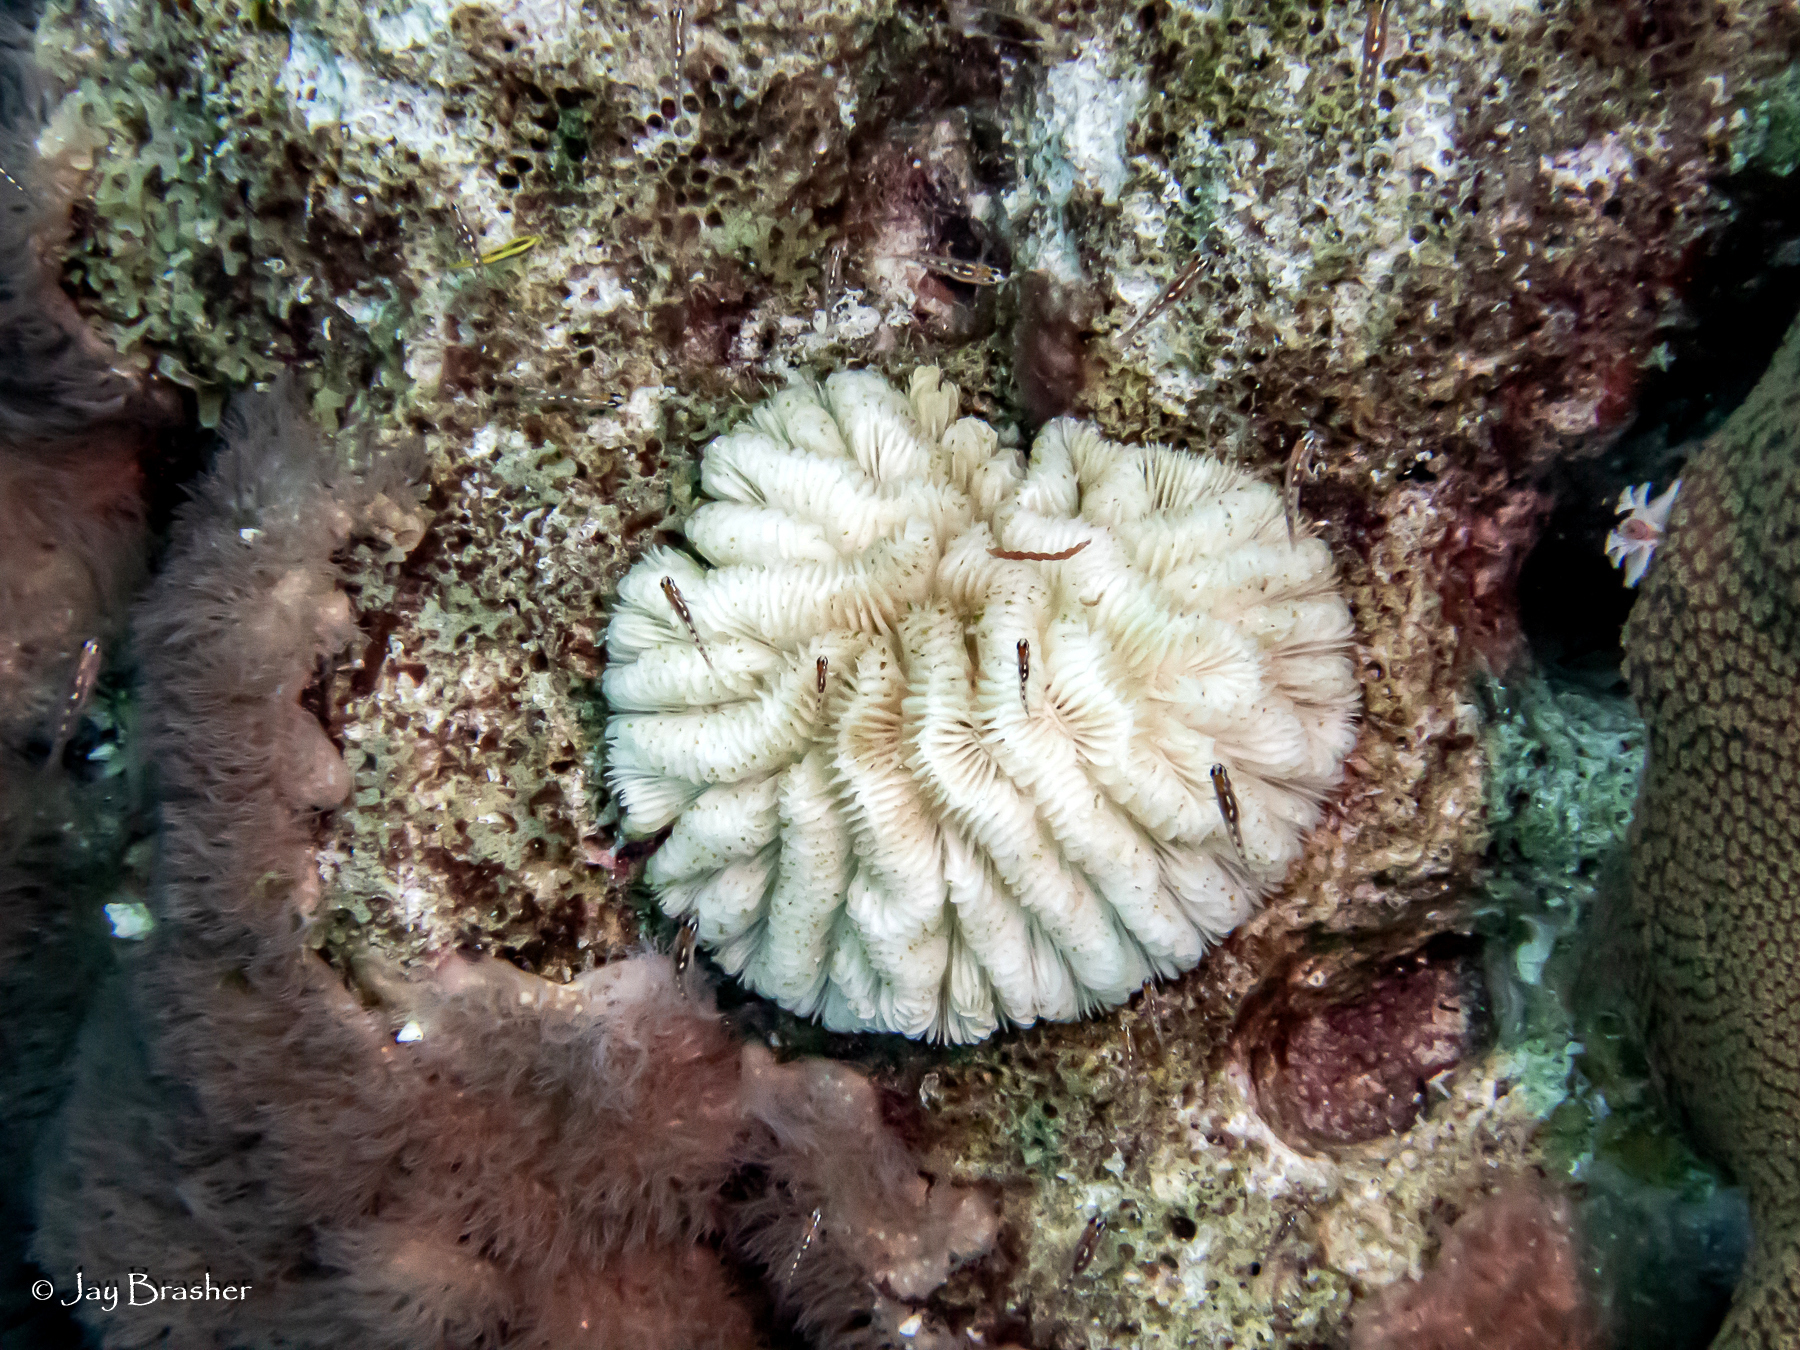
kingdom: Animalia
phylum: Cnidaria
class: Anthozoa
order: Scleractinia
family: Meandrinidae
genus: Meandrina
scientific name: Meandrina meandrites
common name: Maze coral
